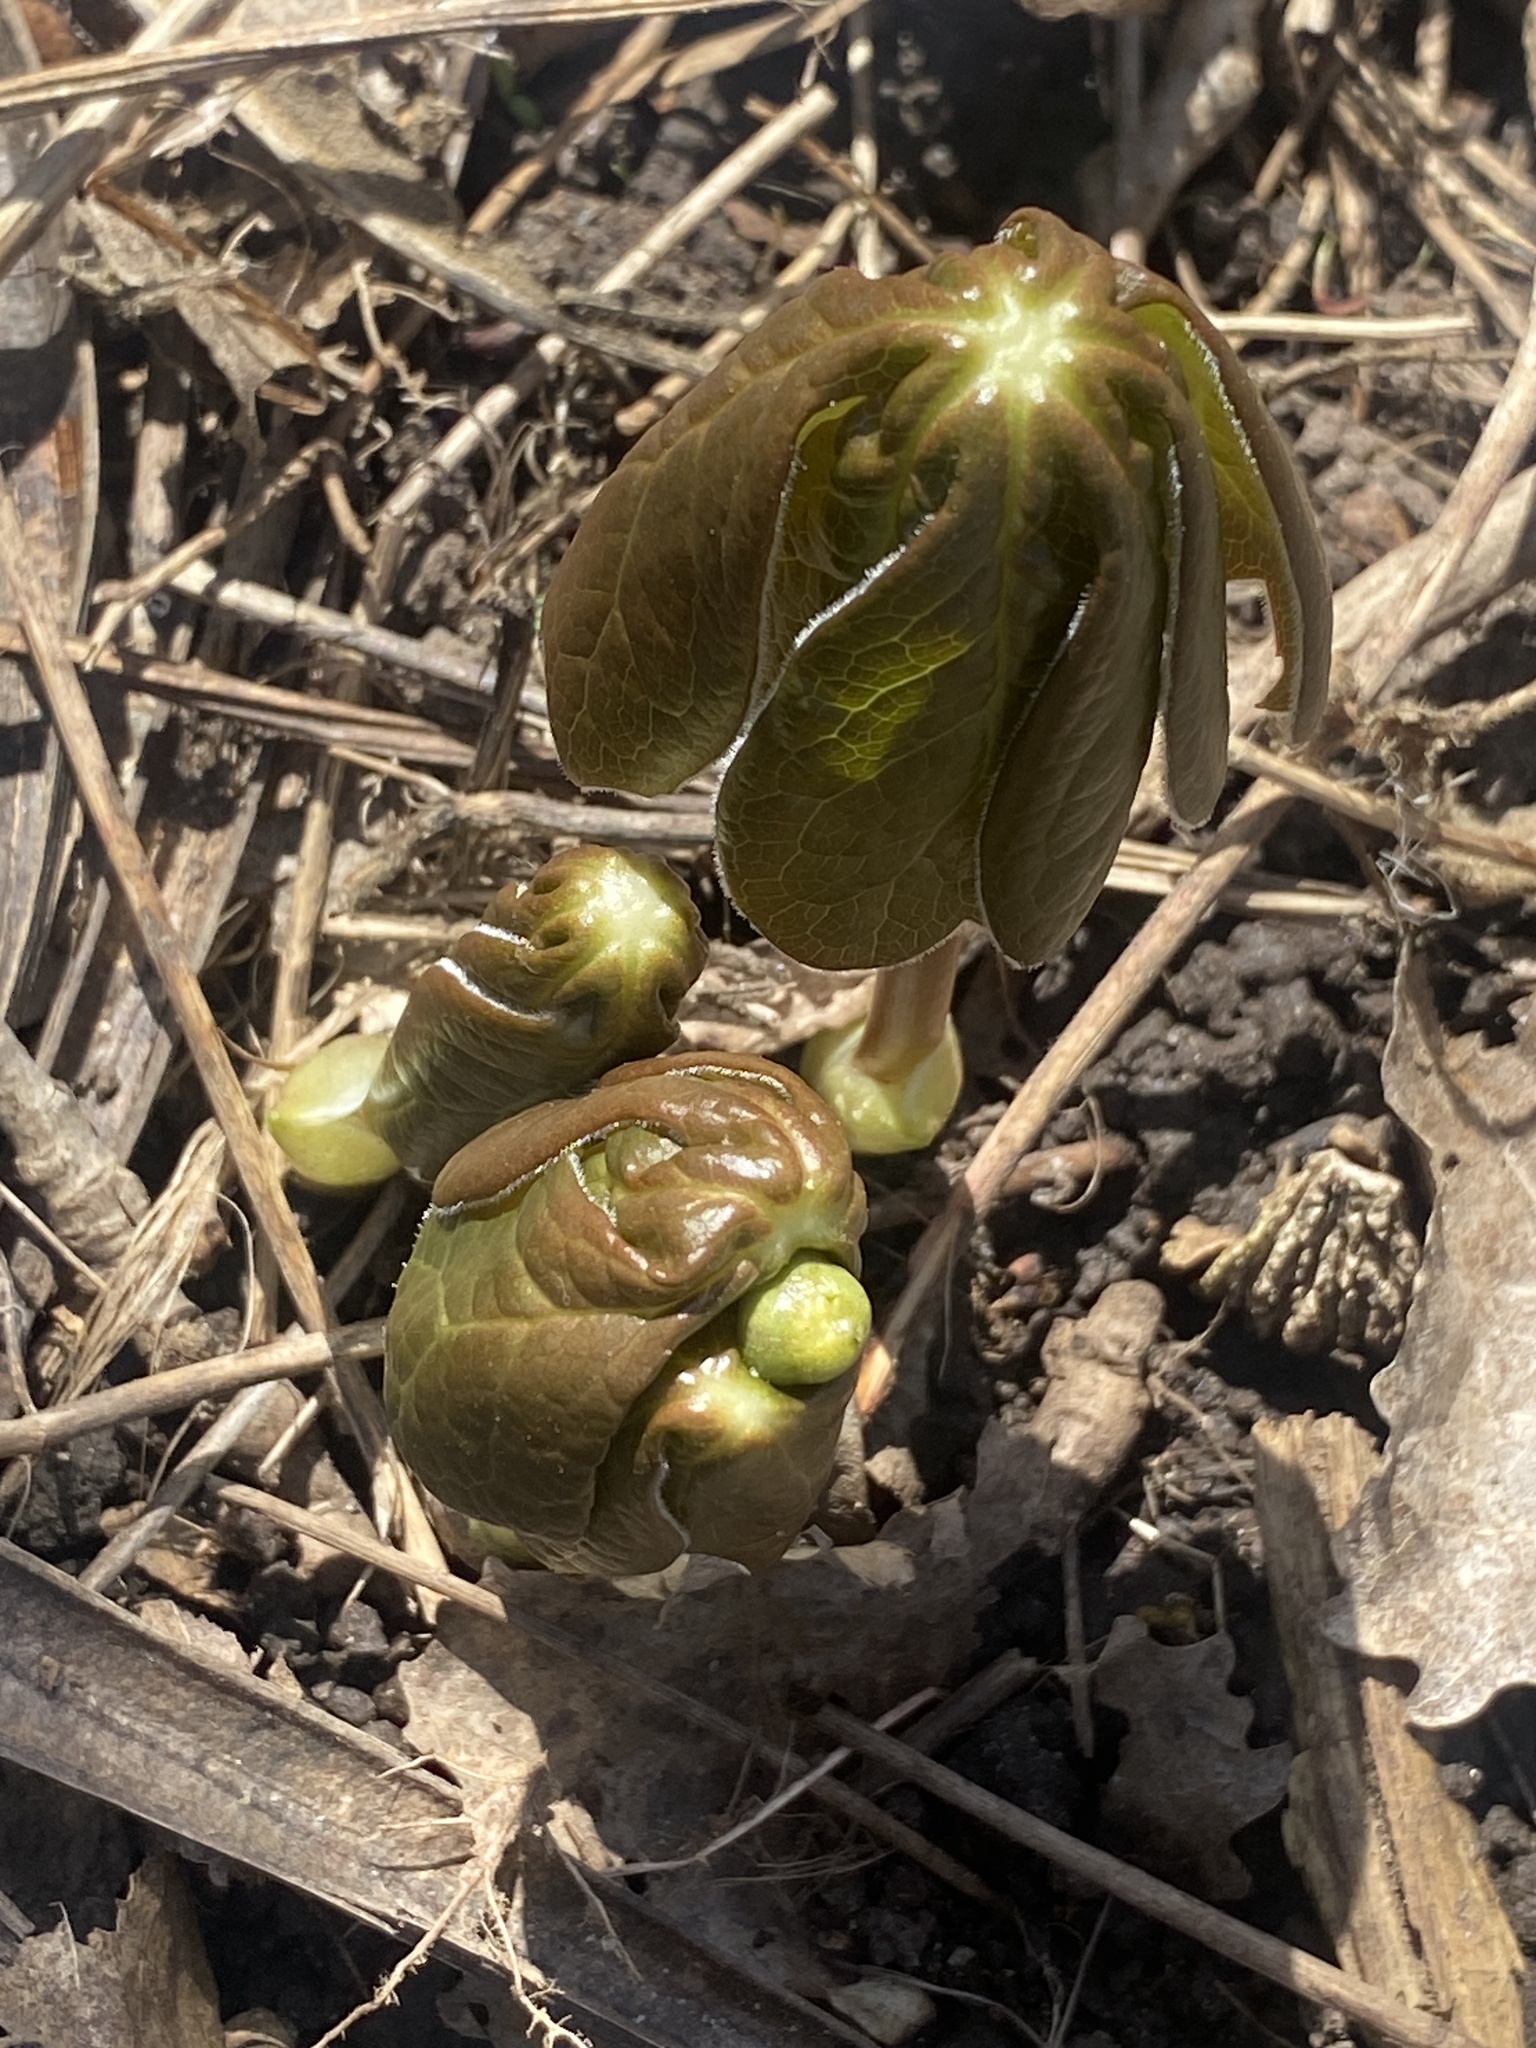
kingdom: Plantae
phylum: Tracheophyta
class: Magnoliopsida
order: Ranunculales
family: Berberidaceae
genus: Podophyllum
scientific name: Podophyllum peltatum
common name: Wild mandrake
